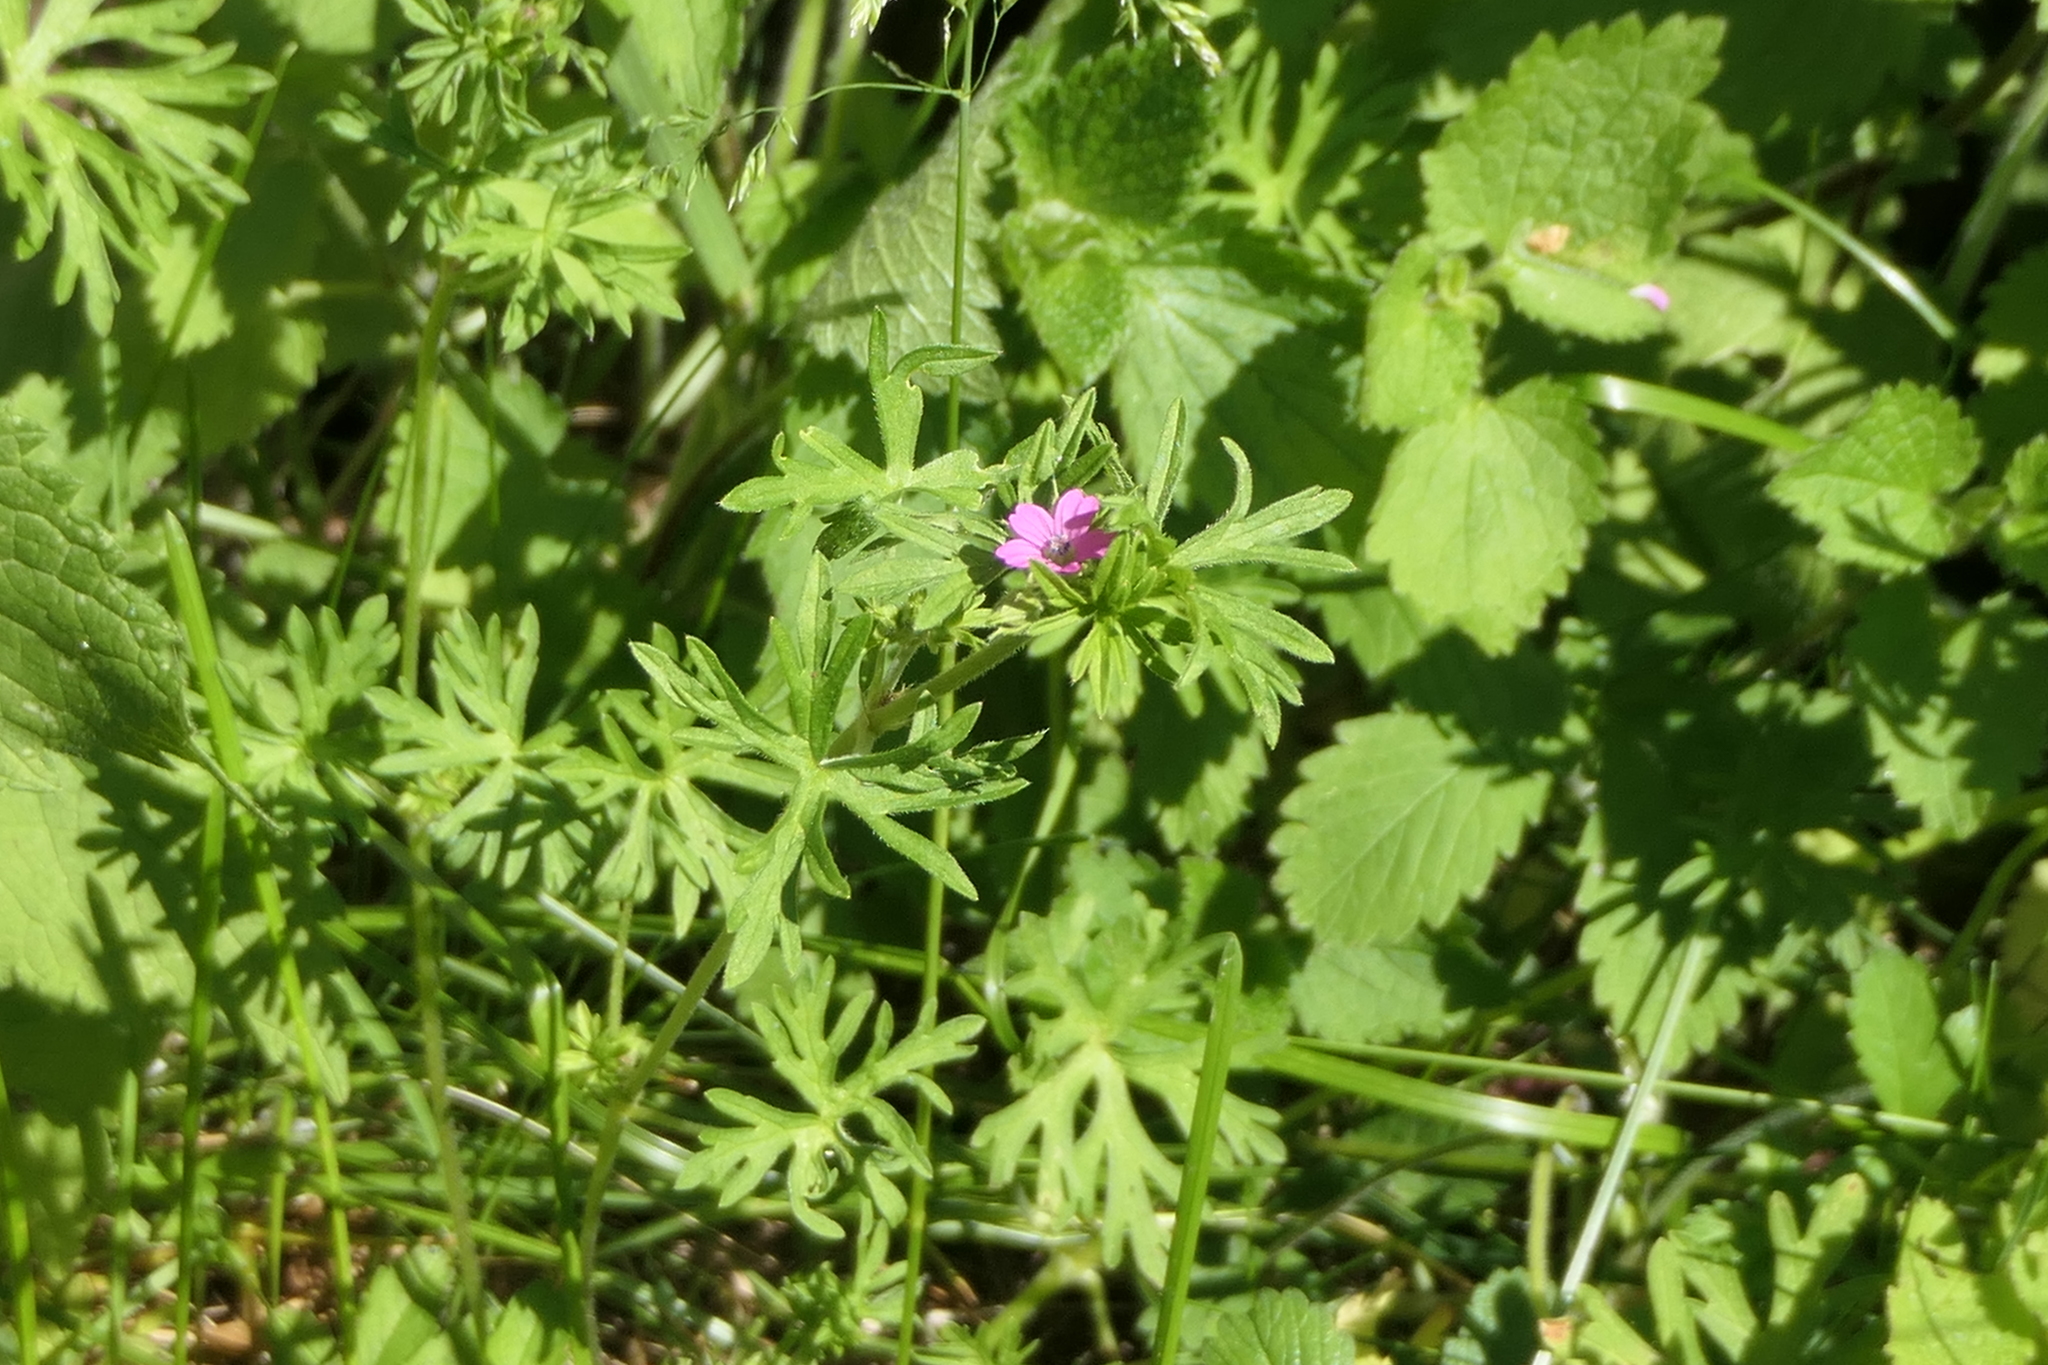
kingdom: Plantae
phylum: Tracheophyta
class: Magnoliopsida
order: Geraniales
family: Geraniaceae
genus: Geranium
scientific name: Geranium dissectum
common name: Cut-leaved crane's-bill
